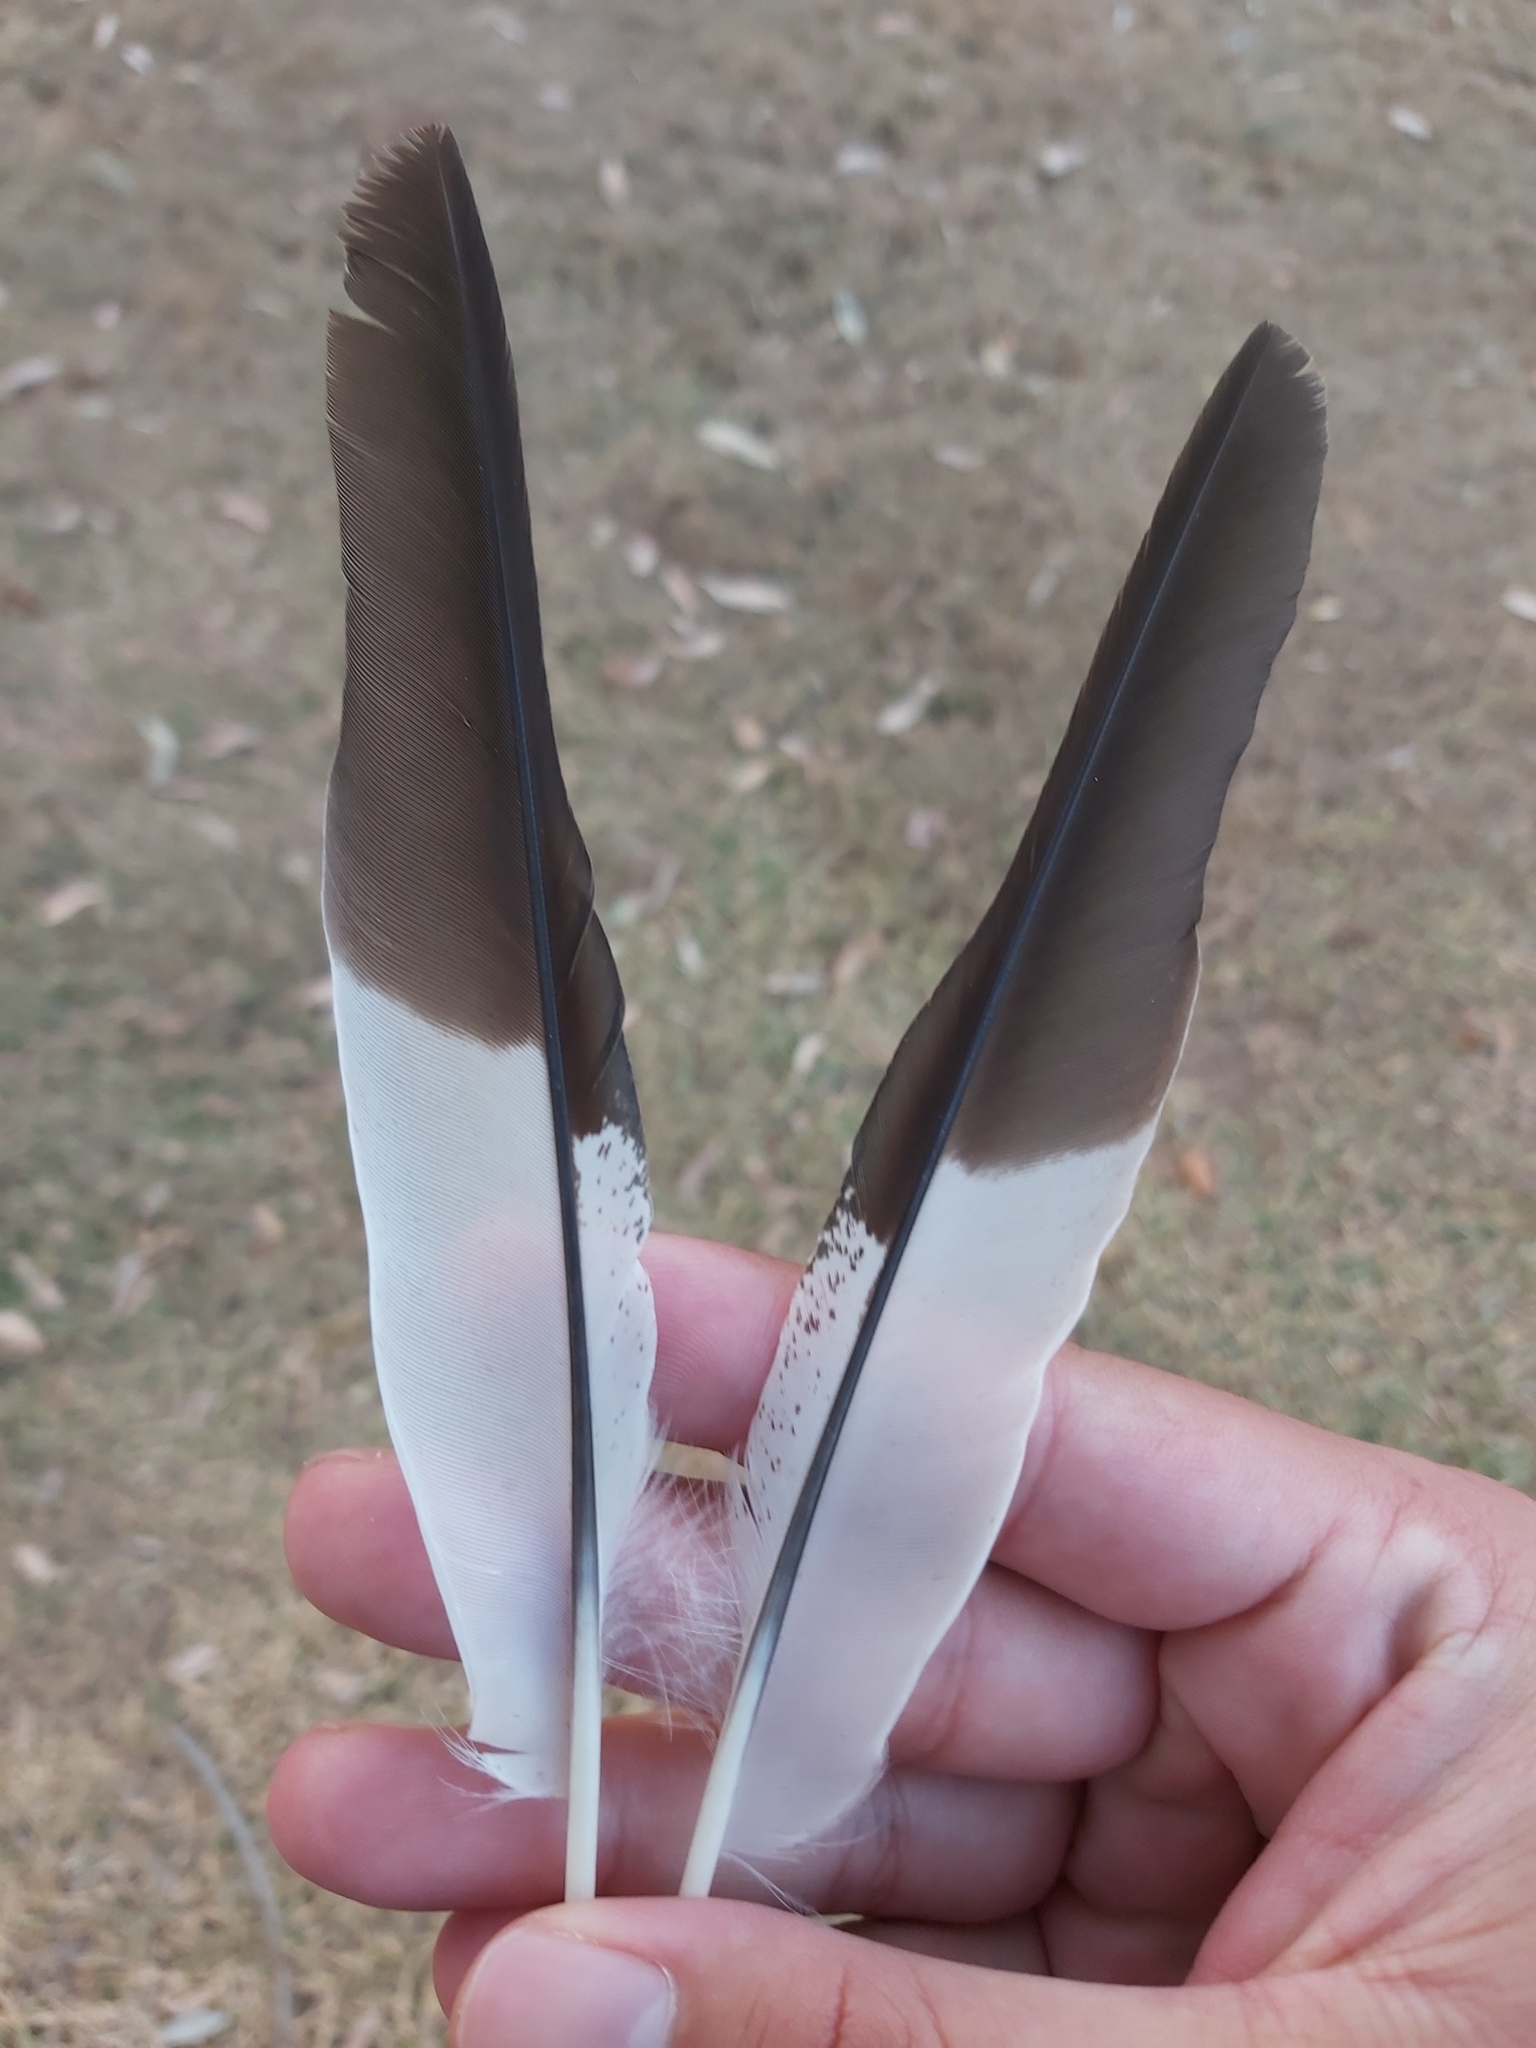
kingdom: Animalia
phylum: Chordata
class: Aves
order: Coraciiformes
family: Alcedinidae
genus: Dacelo
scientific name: Dacelo novaeguineae
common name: Laughing kookaburra
